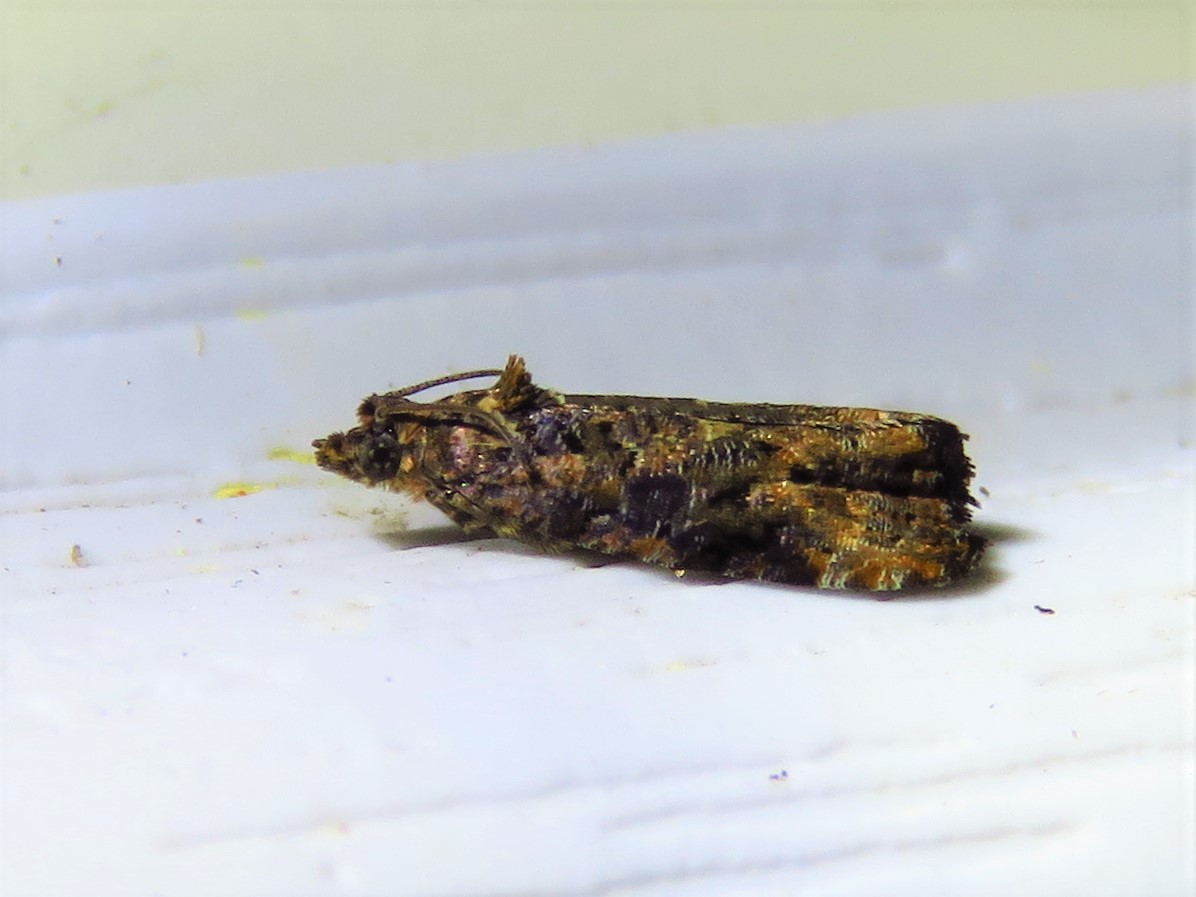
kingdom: Animalia
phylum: Arthropoda
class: Insecta
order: Lepidoptera
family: Tortricidae
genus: Endothenia
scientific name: Endothenia hebesana
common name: Verbena bud moth
